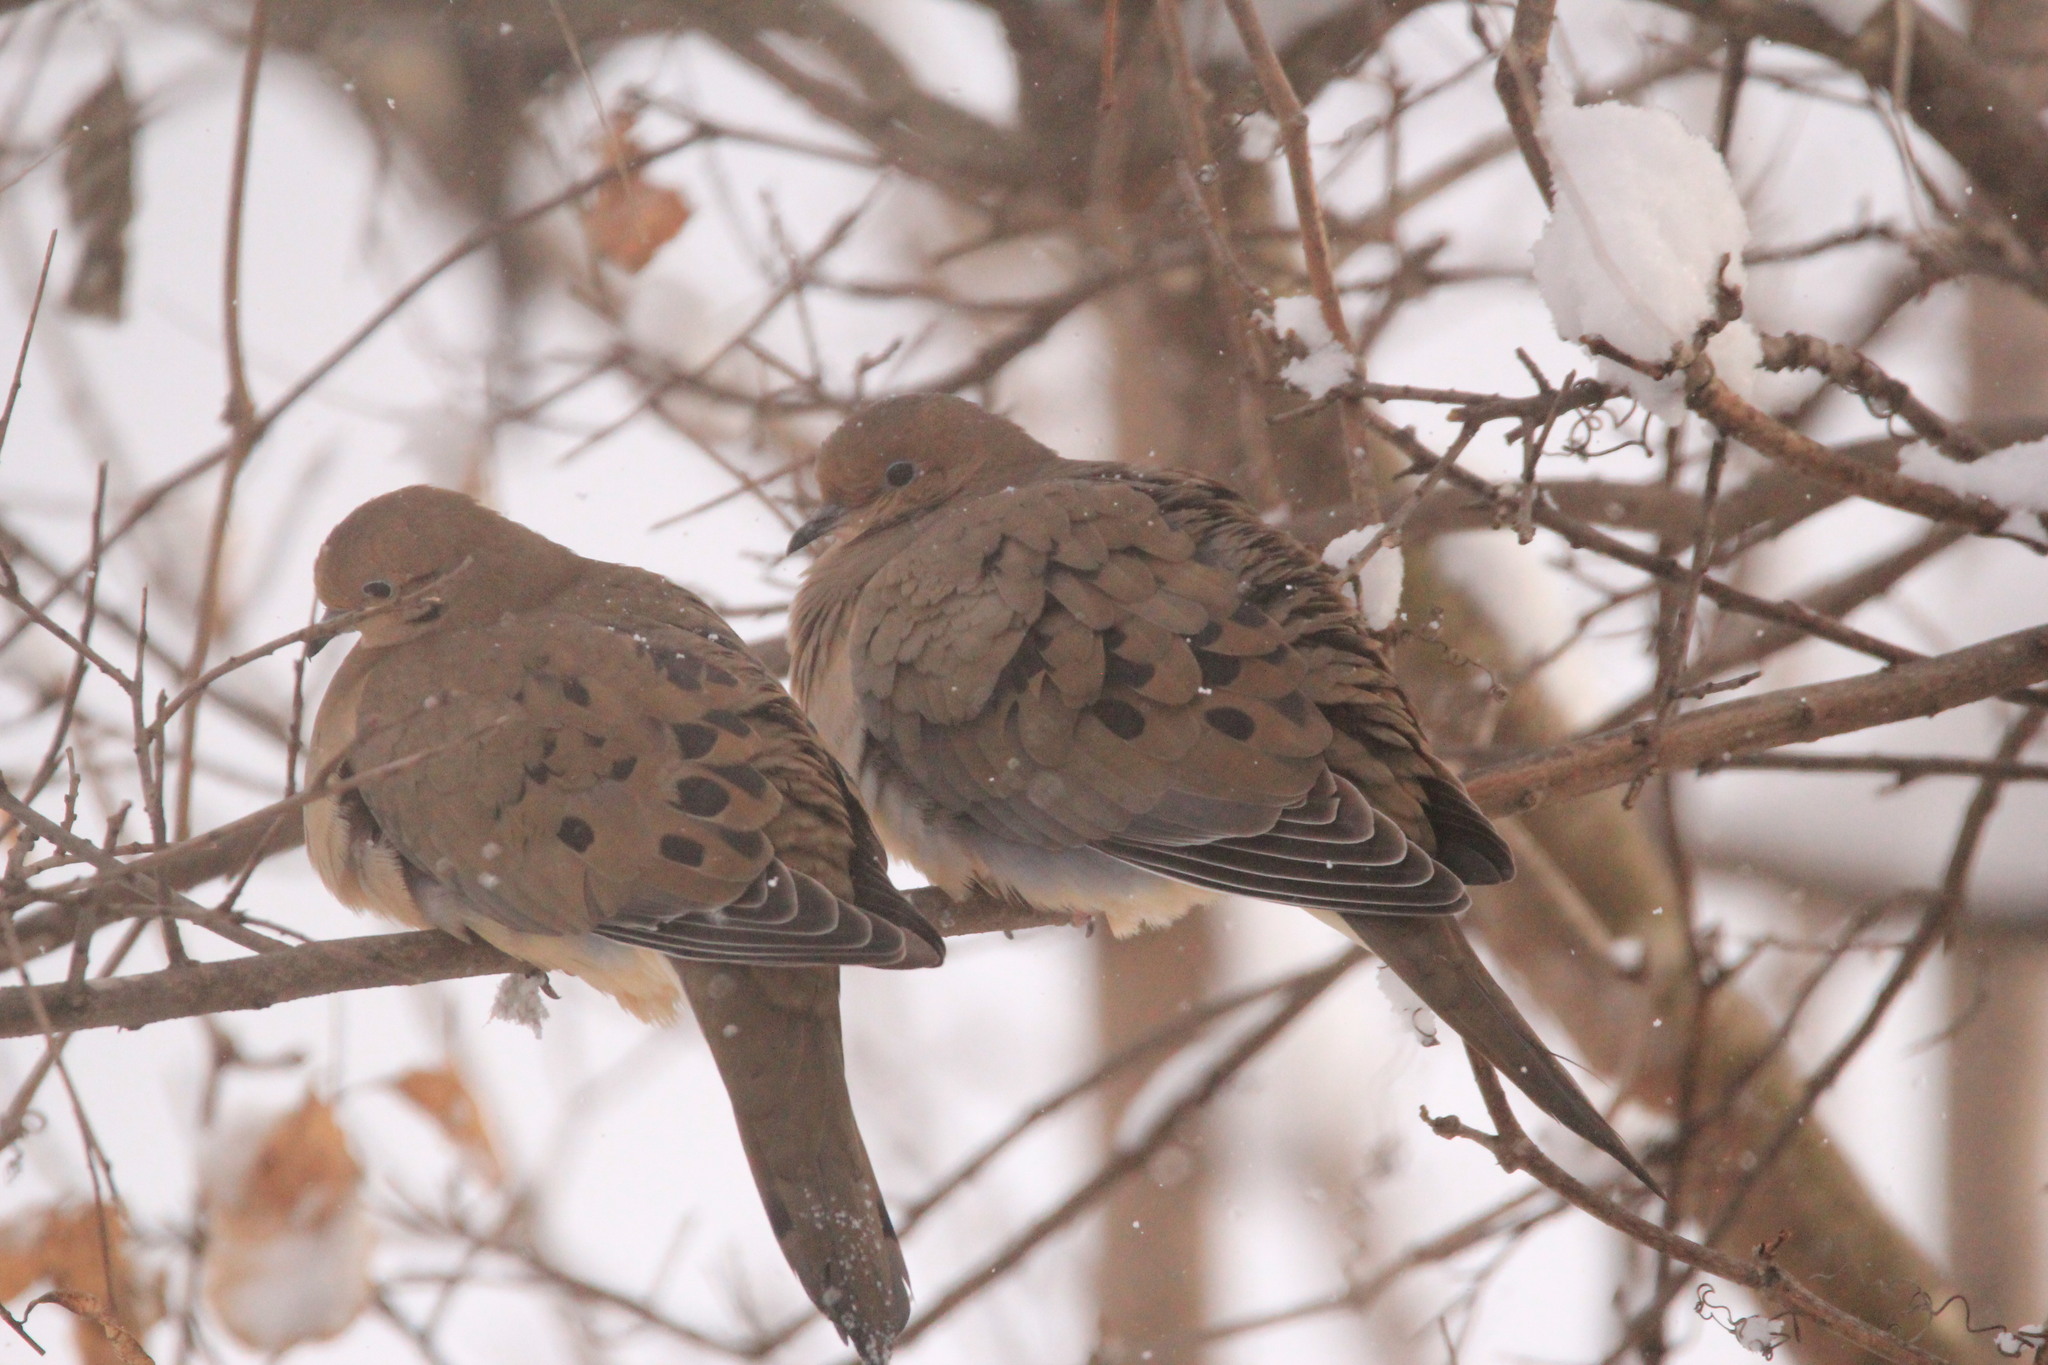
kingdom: Animalia
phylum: Chordata
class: Aves
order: Columbiformes
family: Columbidae
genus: Zenaida
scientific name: Zenaida macroura
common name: Mourning dove
